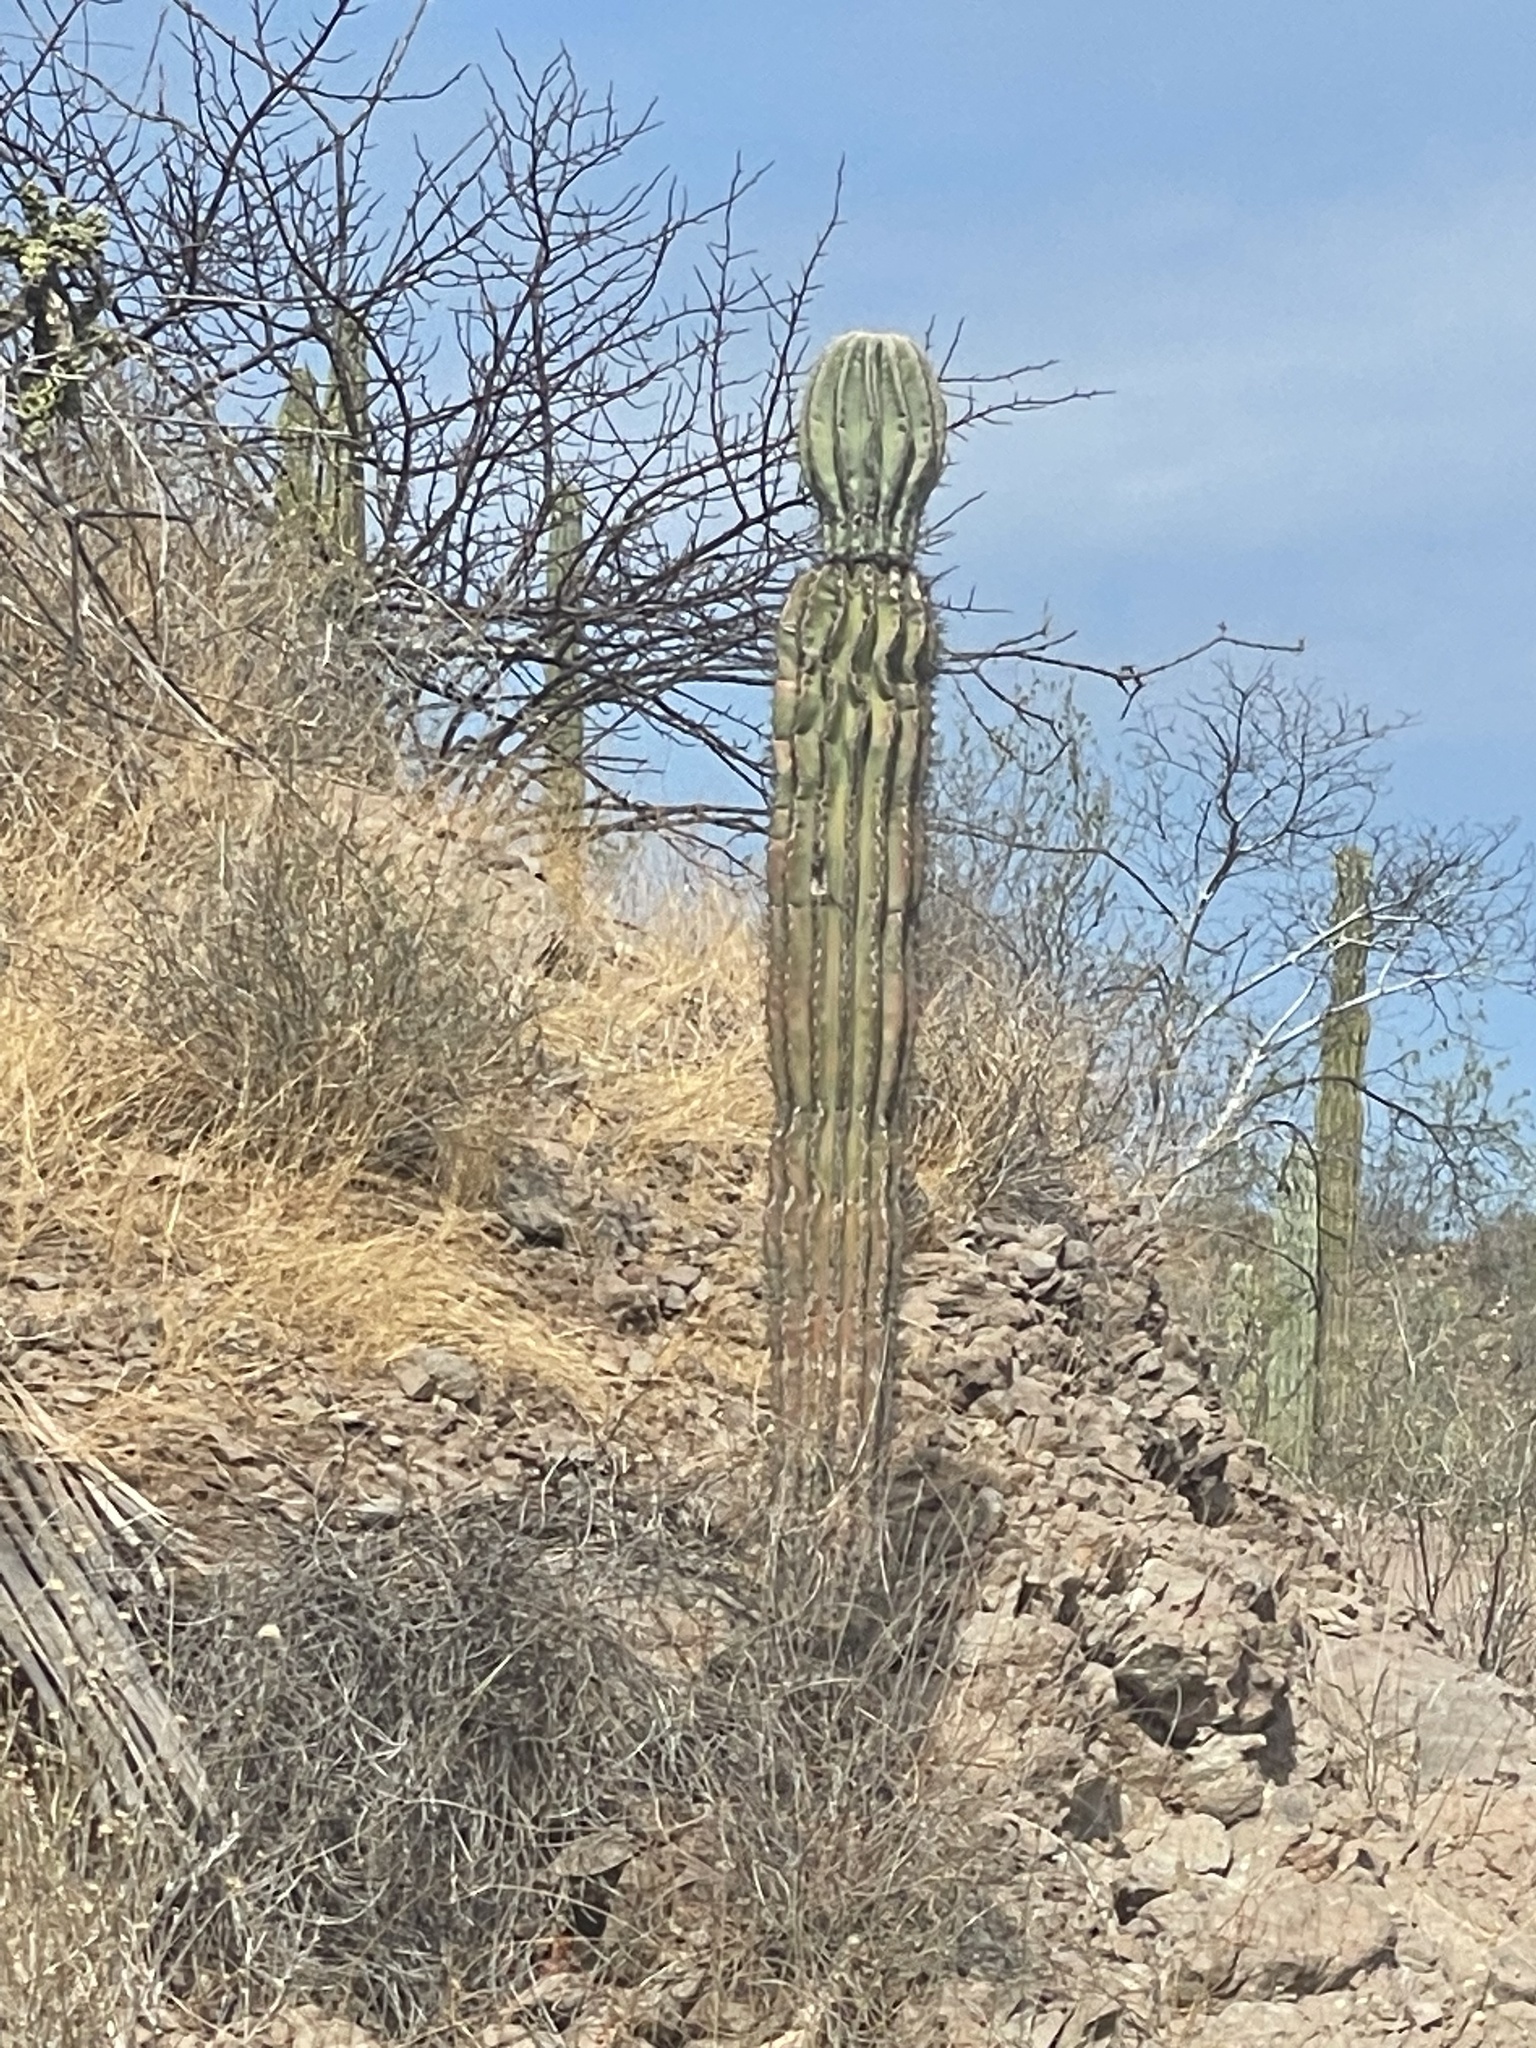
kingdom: Plantae
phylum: Tracheophyta
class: Magnoliopsida
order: Caryophyllales
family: Cactaceae
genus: Pachycereus
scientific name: Pachycereus pringlei
